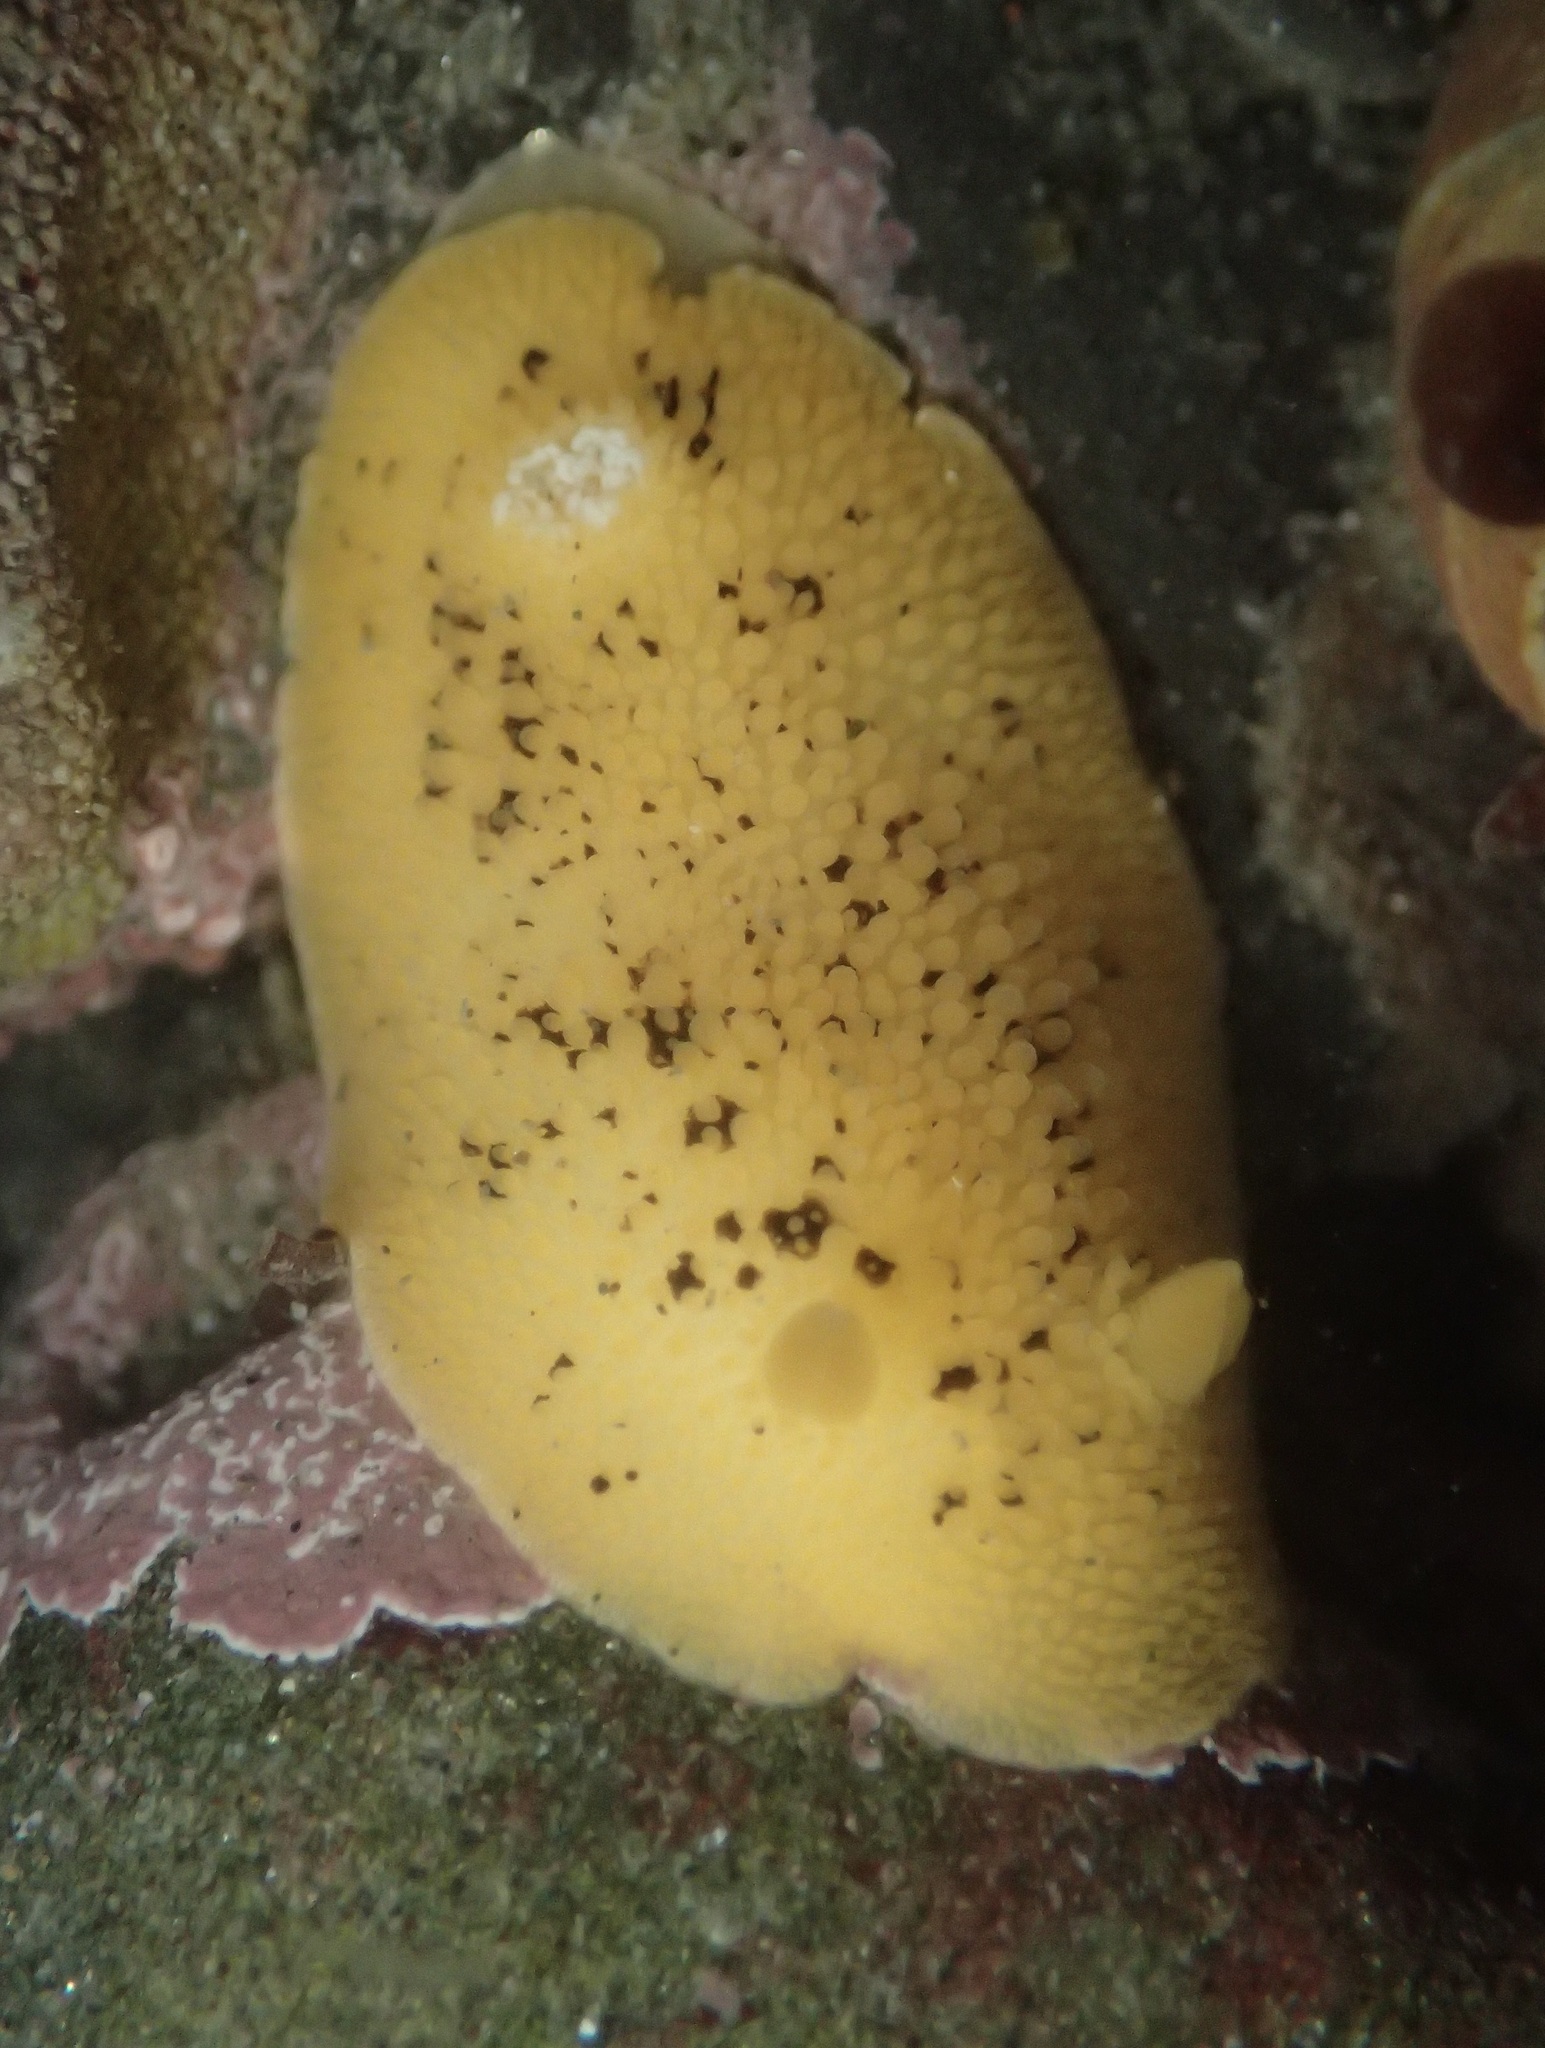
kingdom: Animalia
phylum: Mollusca
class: Gastropoda
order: Nudibranchia
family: Discodorididae
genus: Peltodoris
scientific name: Peltodoris nobilis
